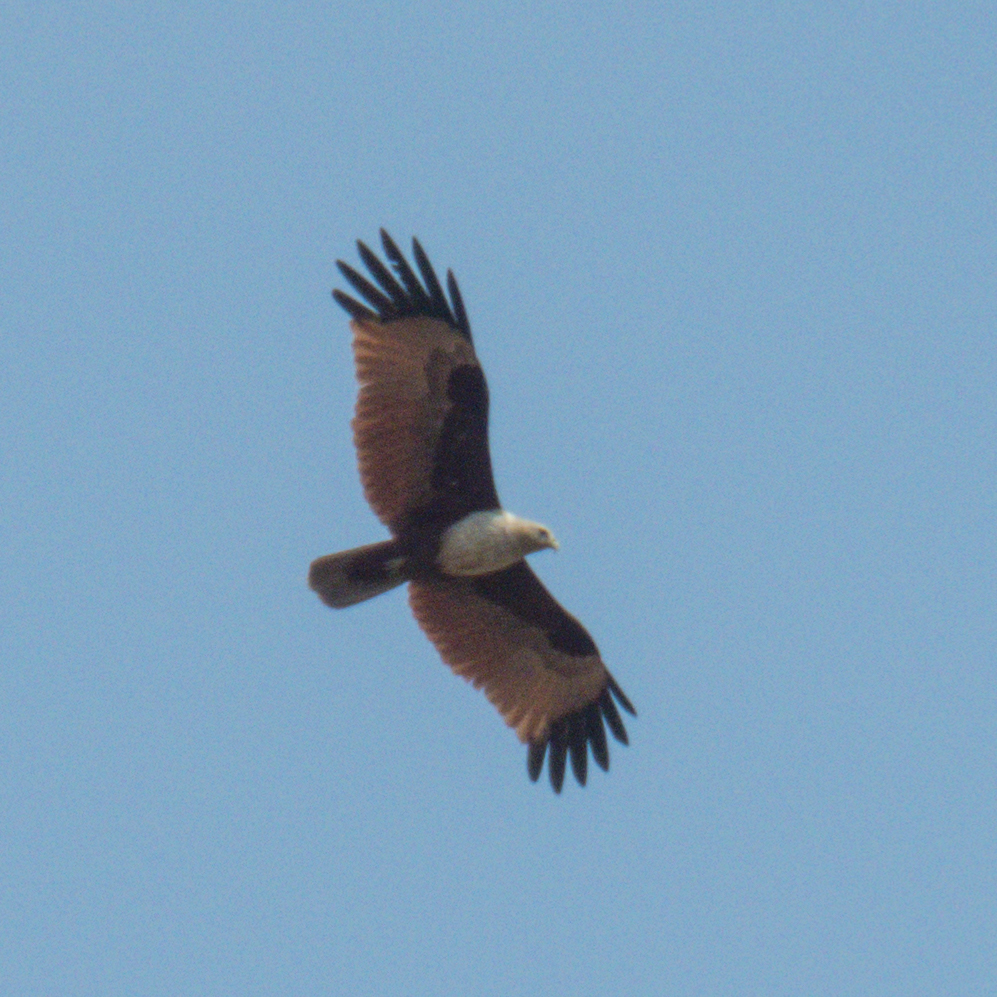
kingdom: Animalia
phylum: Chordata
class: Aves
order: Accipitriformes
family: Accipitridae
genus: Haliastur
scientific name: Haliastur indus
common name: Brahminy kite
